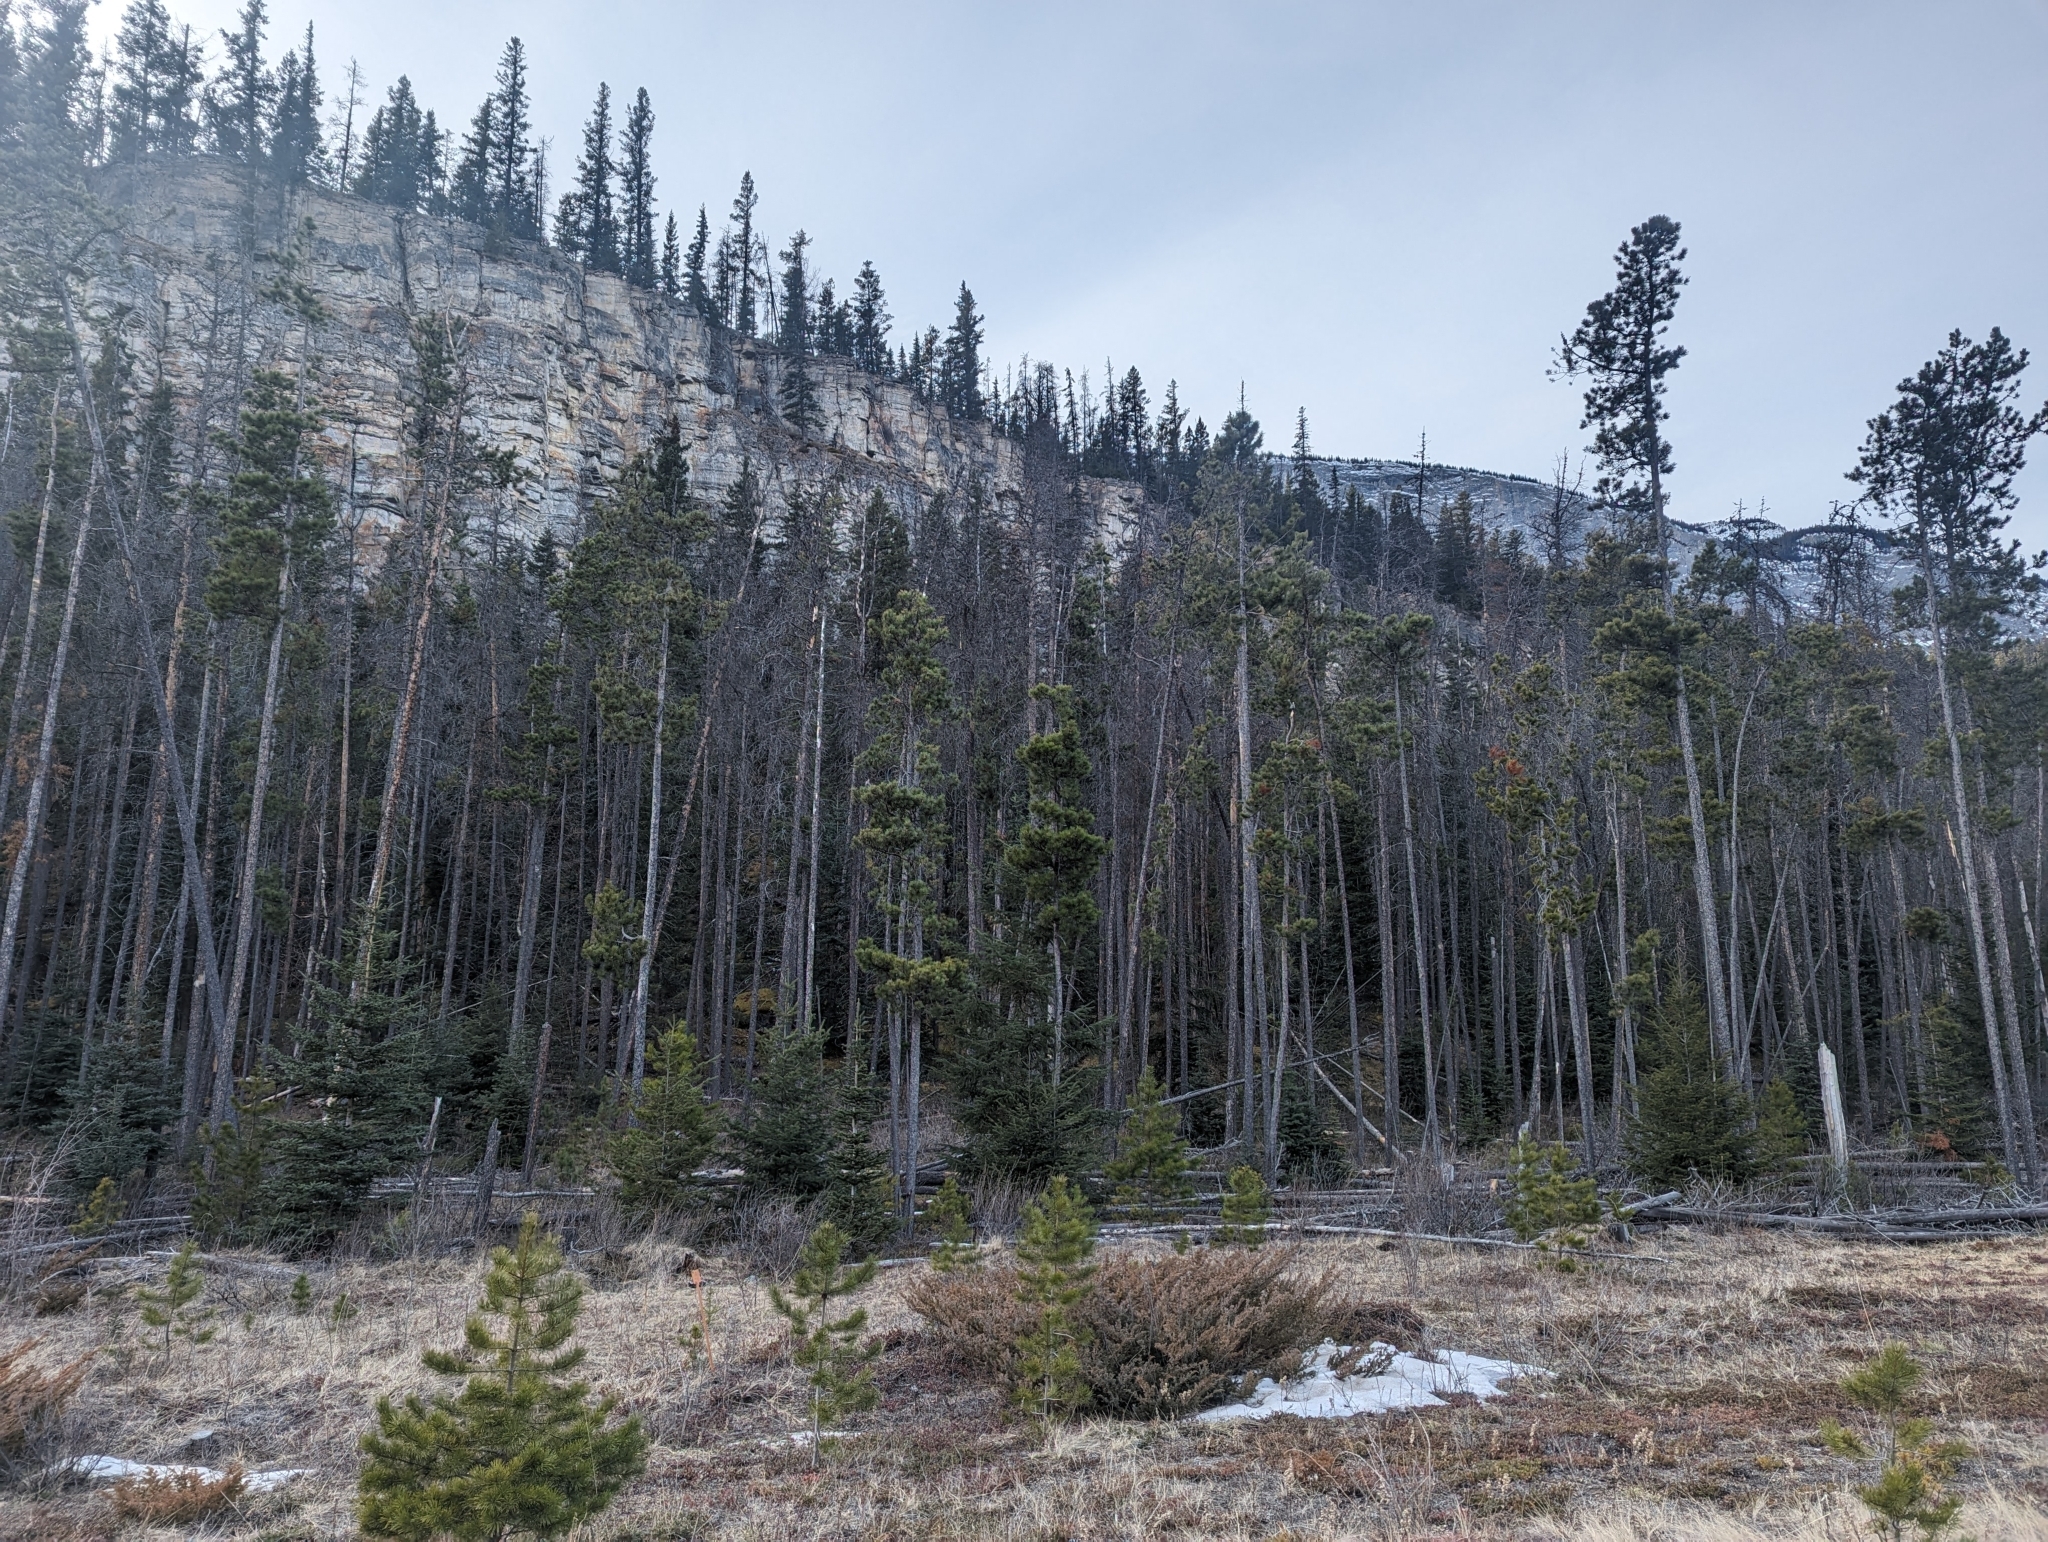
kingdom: Plantae
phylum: Tracheophyta
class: Pinopsida
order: Pinales
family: Pinaceae
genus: Pinus
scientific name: Pinus contorta
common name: Lodgepole pine
